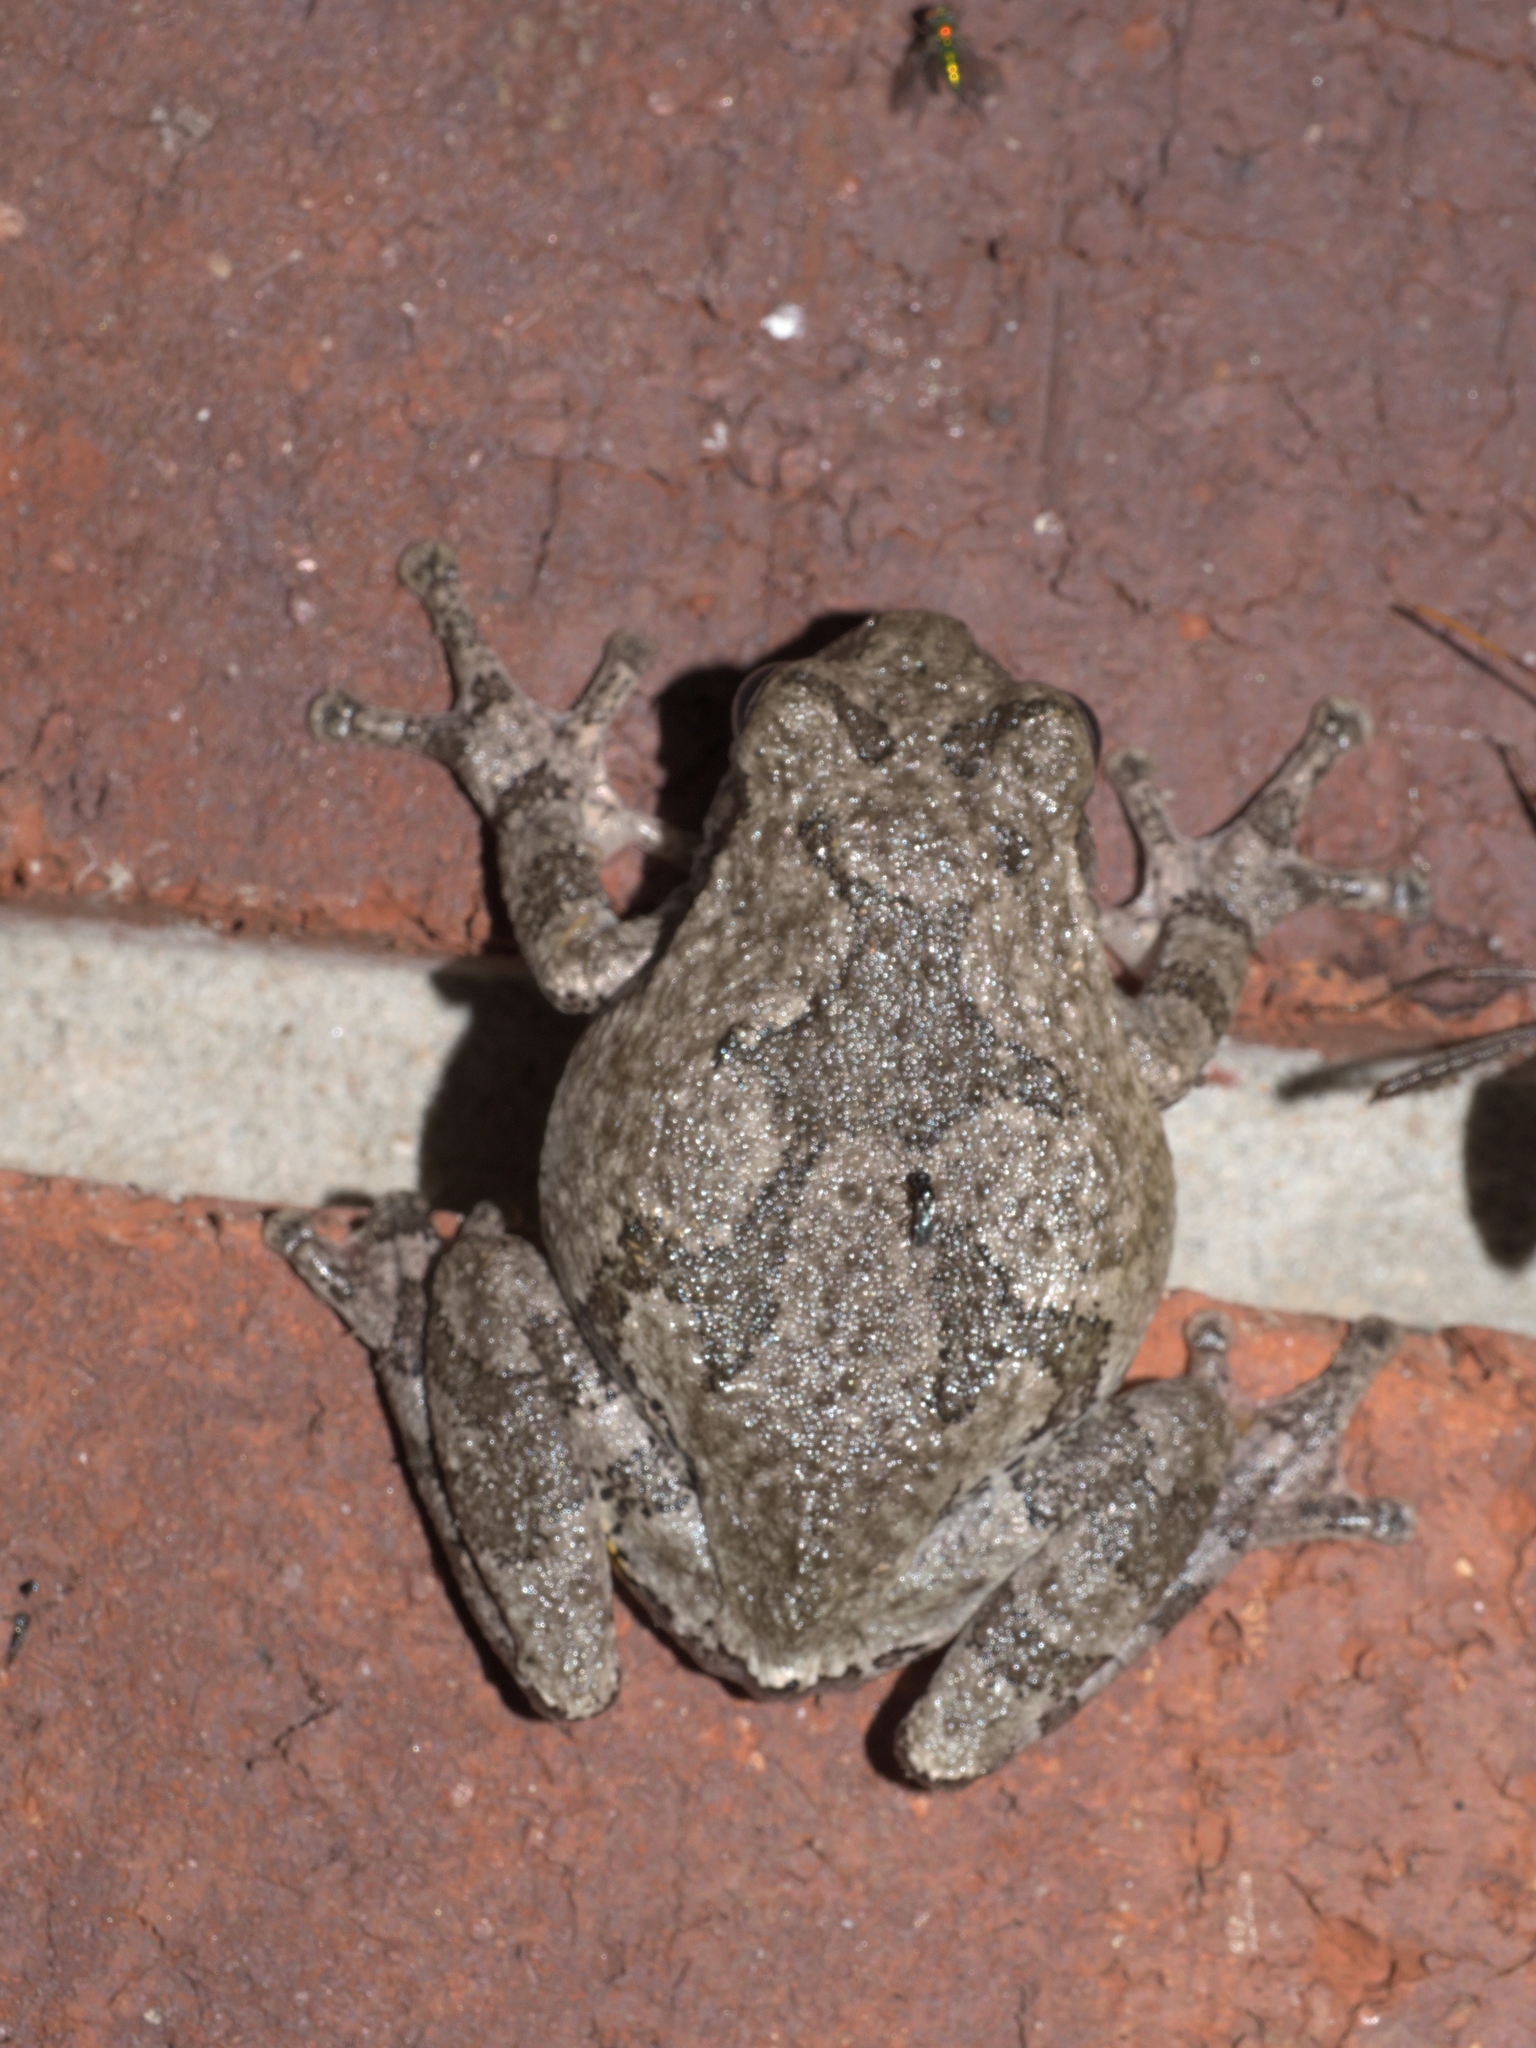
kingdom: Animalia
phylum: Chordata
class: Amphibia
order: Anura
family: Hylidae
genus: Hyla
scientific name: Hyla
